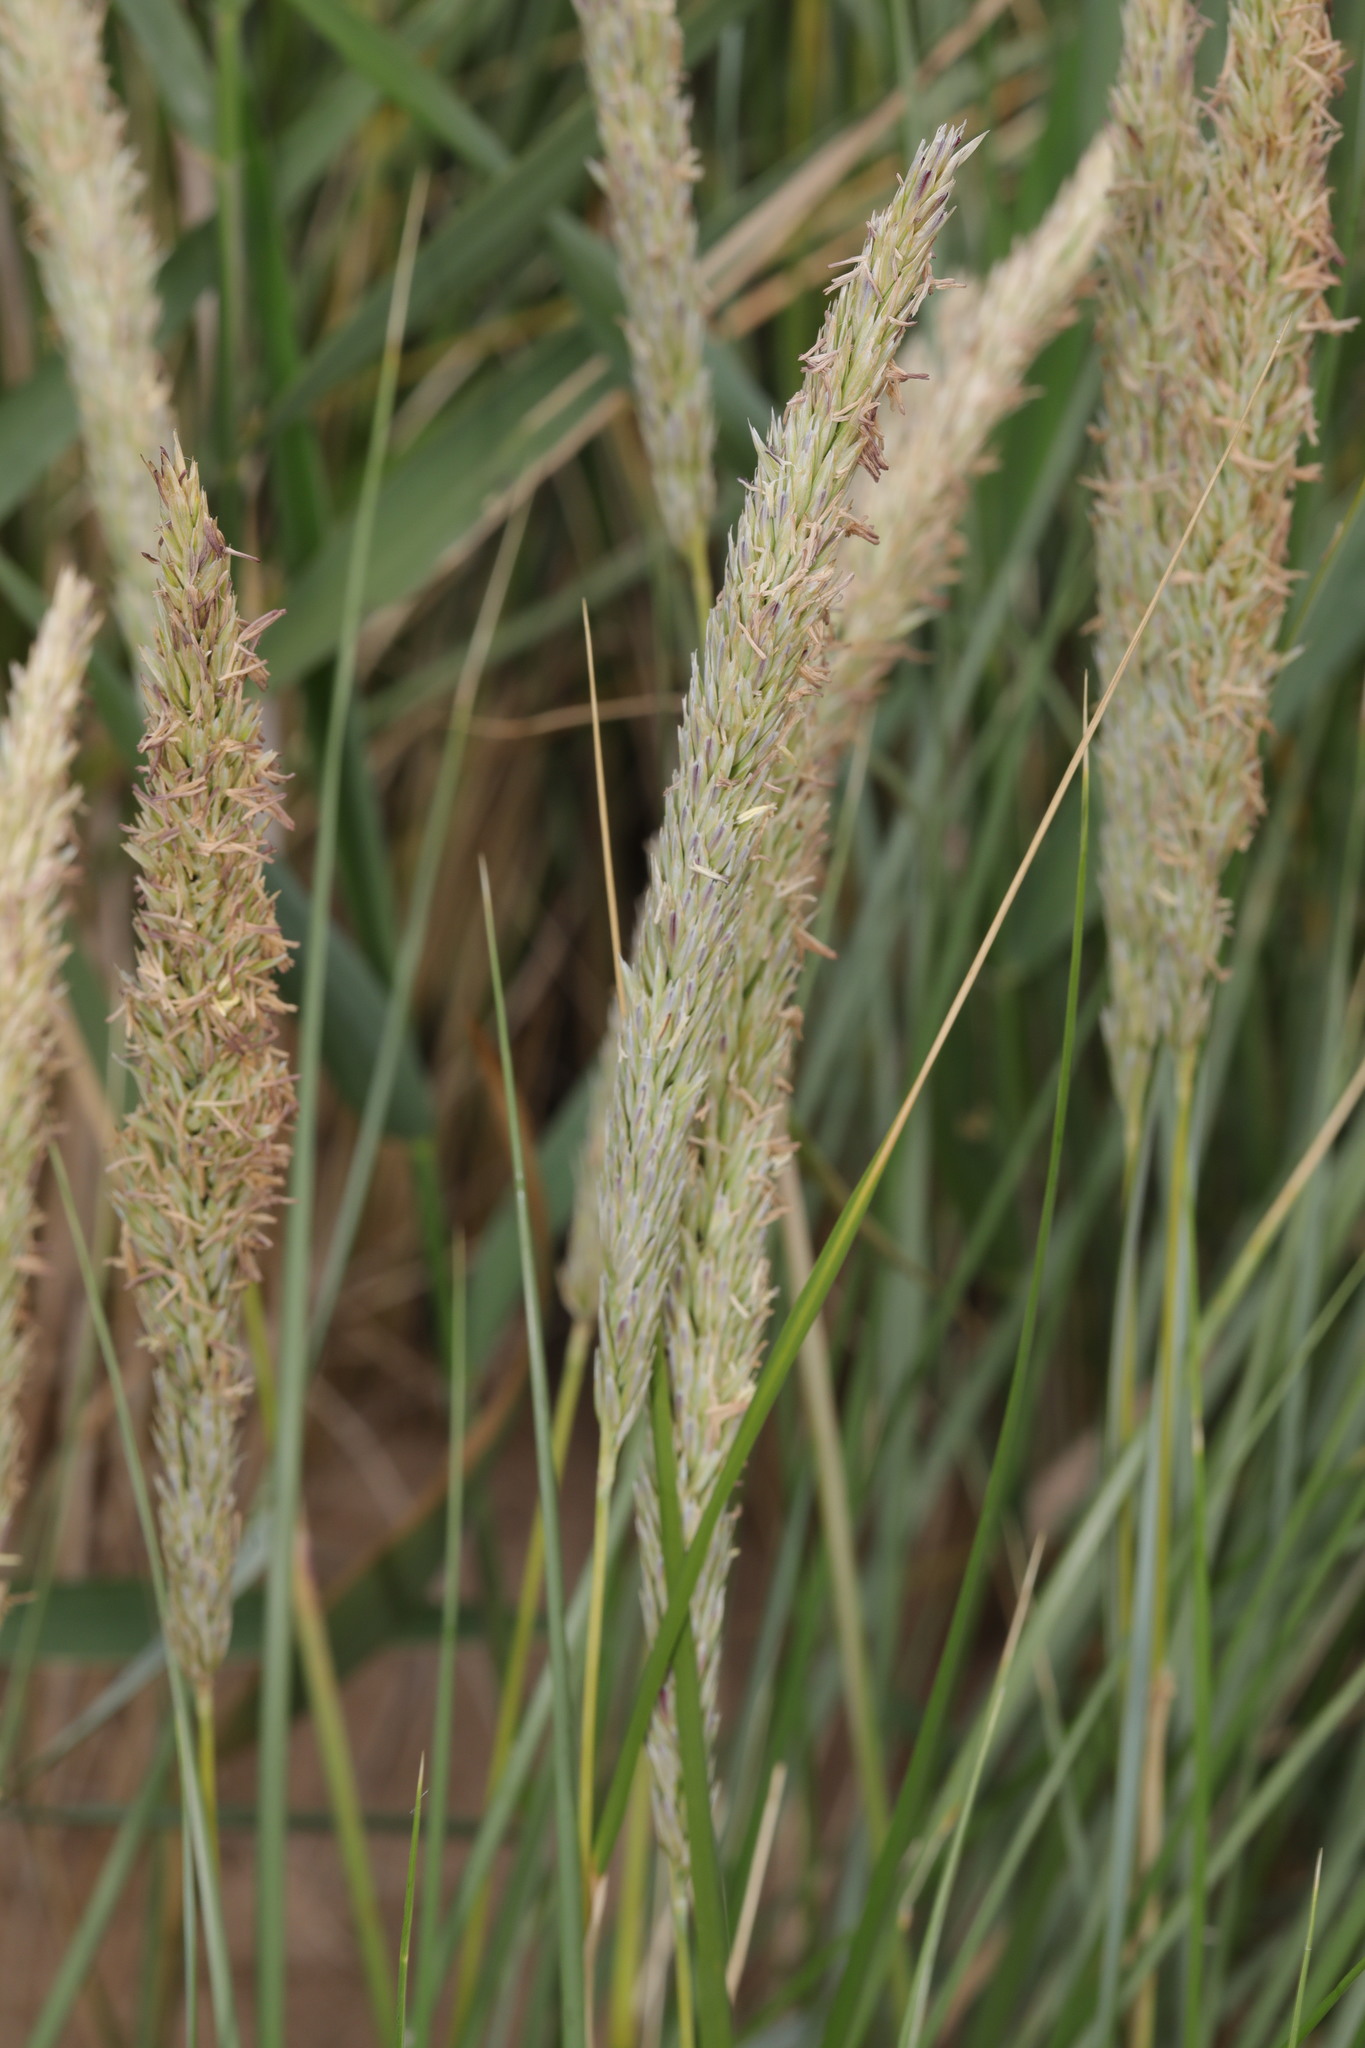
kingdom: Plantae
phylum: Tracheophyta
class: Liliopsida
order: Poales
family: Poaceae
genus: Calamagrostis
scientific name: Calamagrostis arenaria
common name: European beachgrass
